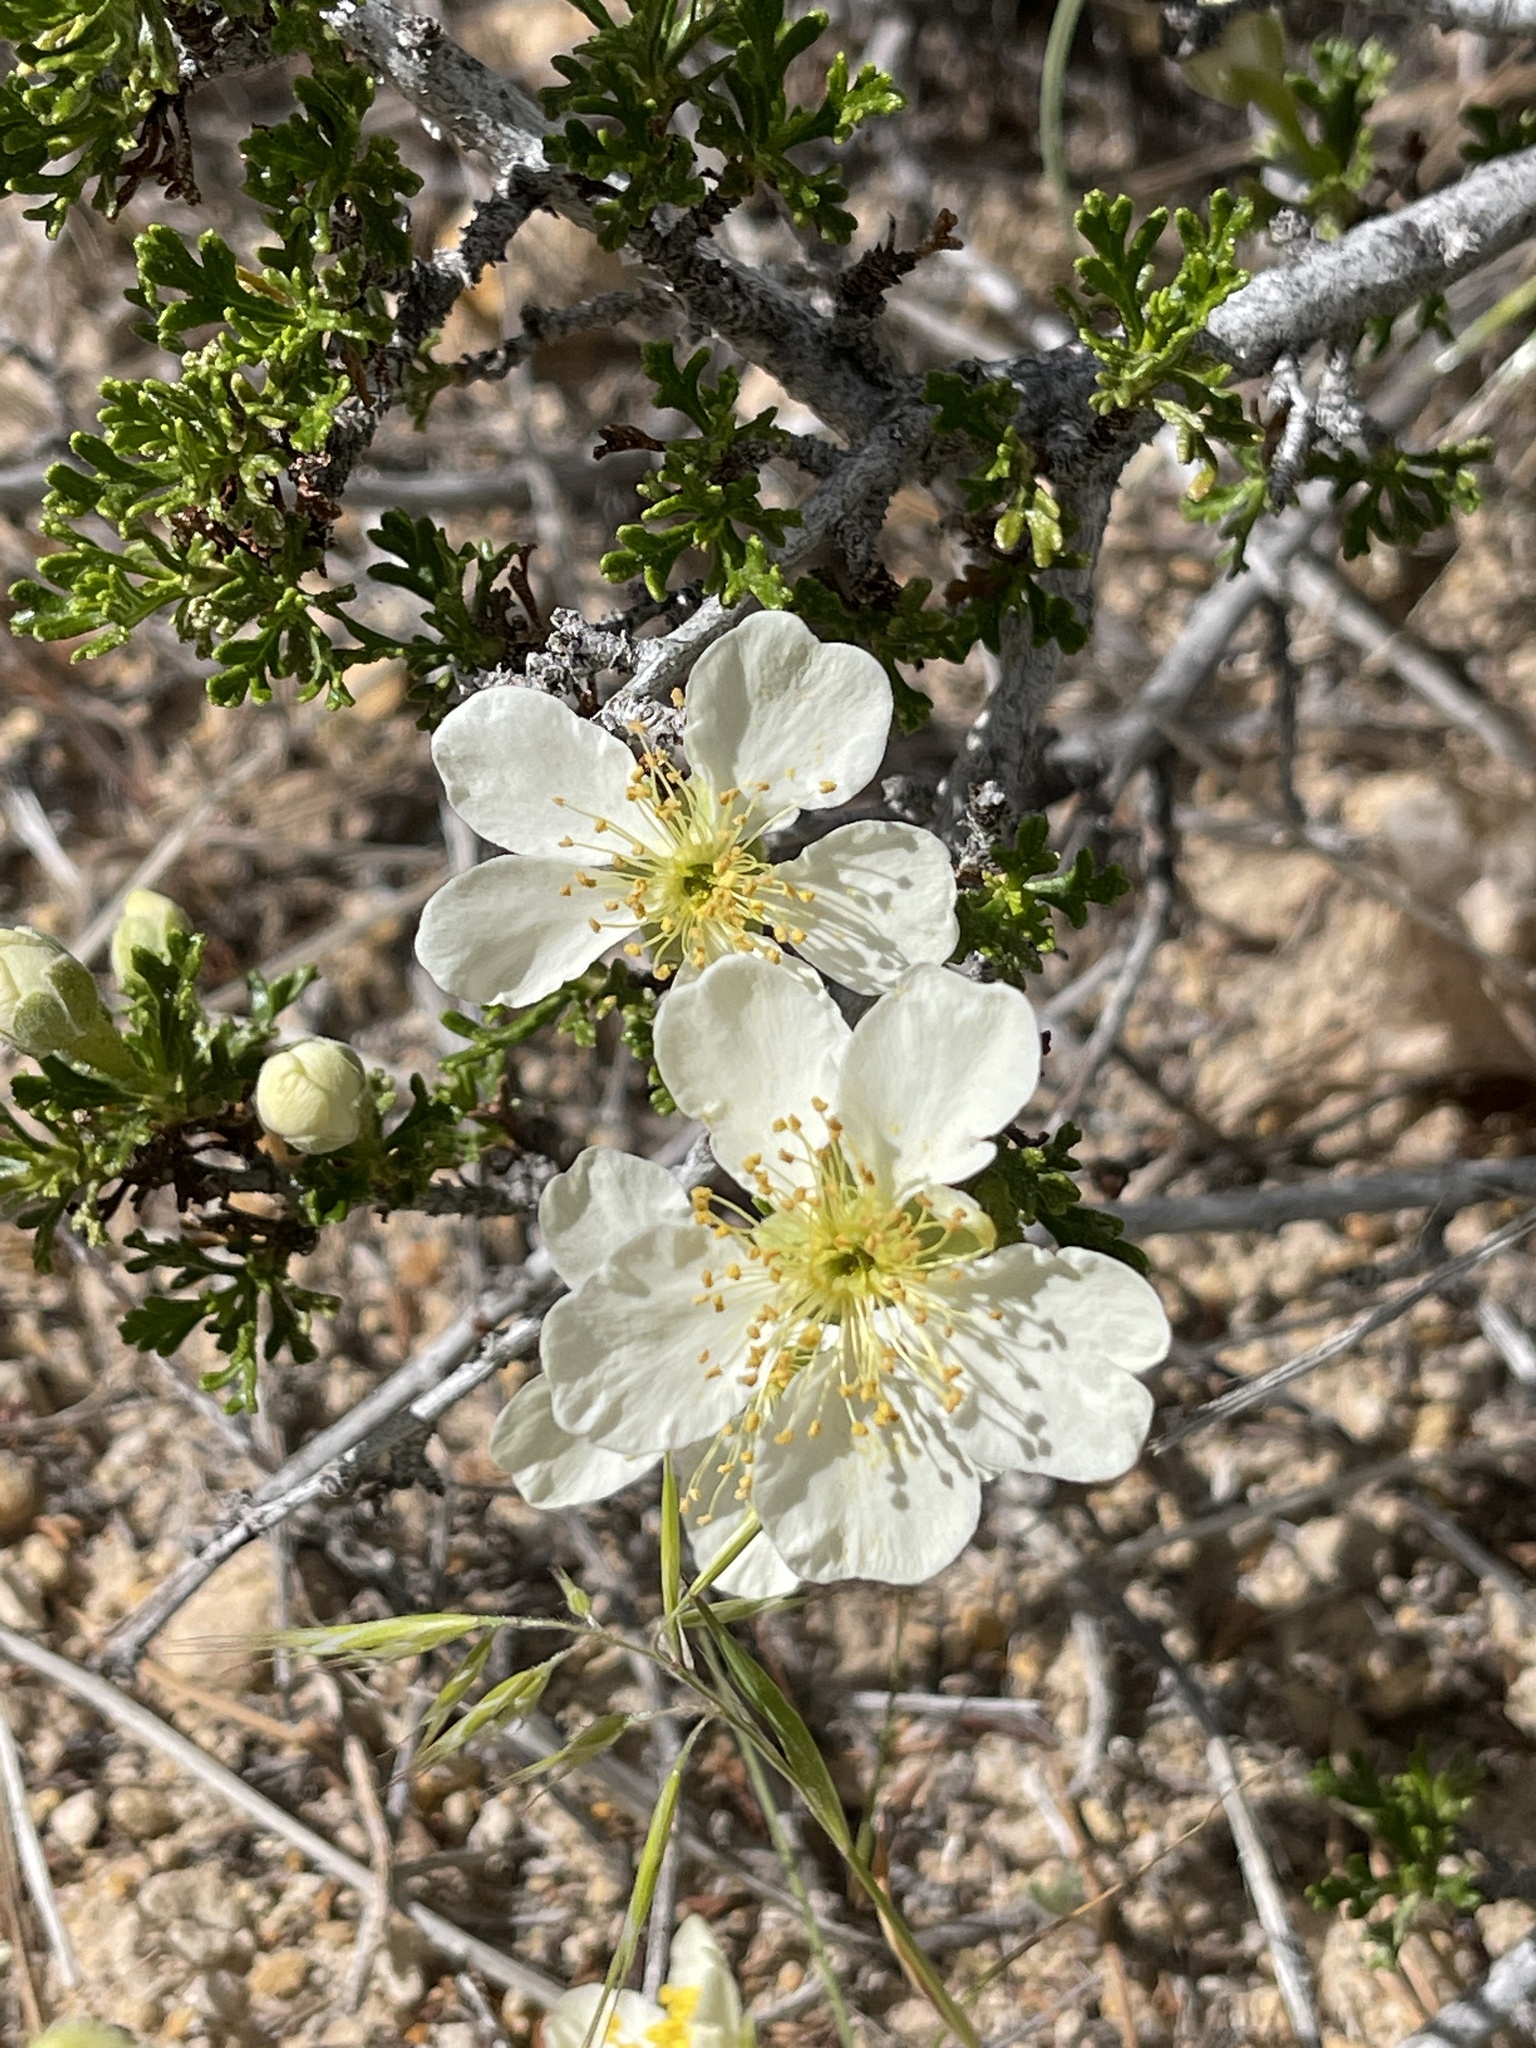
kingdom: Plantae
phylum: Tracheophyta
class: Magnoliopsida
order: Rosales
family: Rosaceae
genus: Purshia
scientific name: Purshia stansburiana
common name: Stansbury's cliffrose
